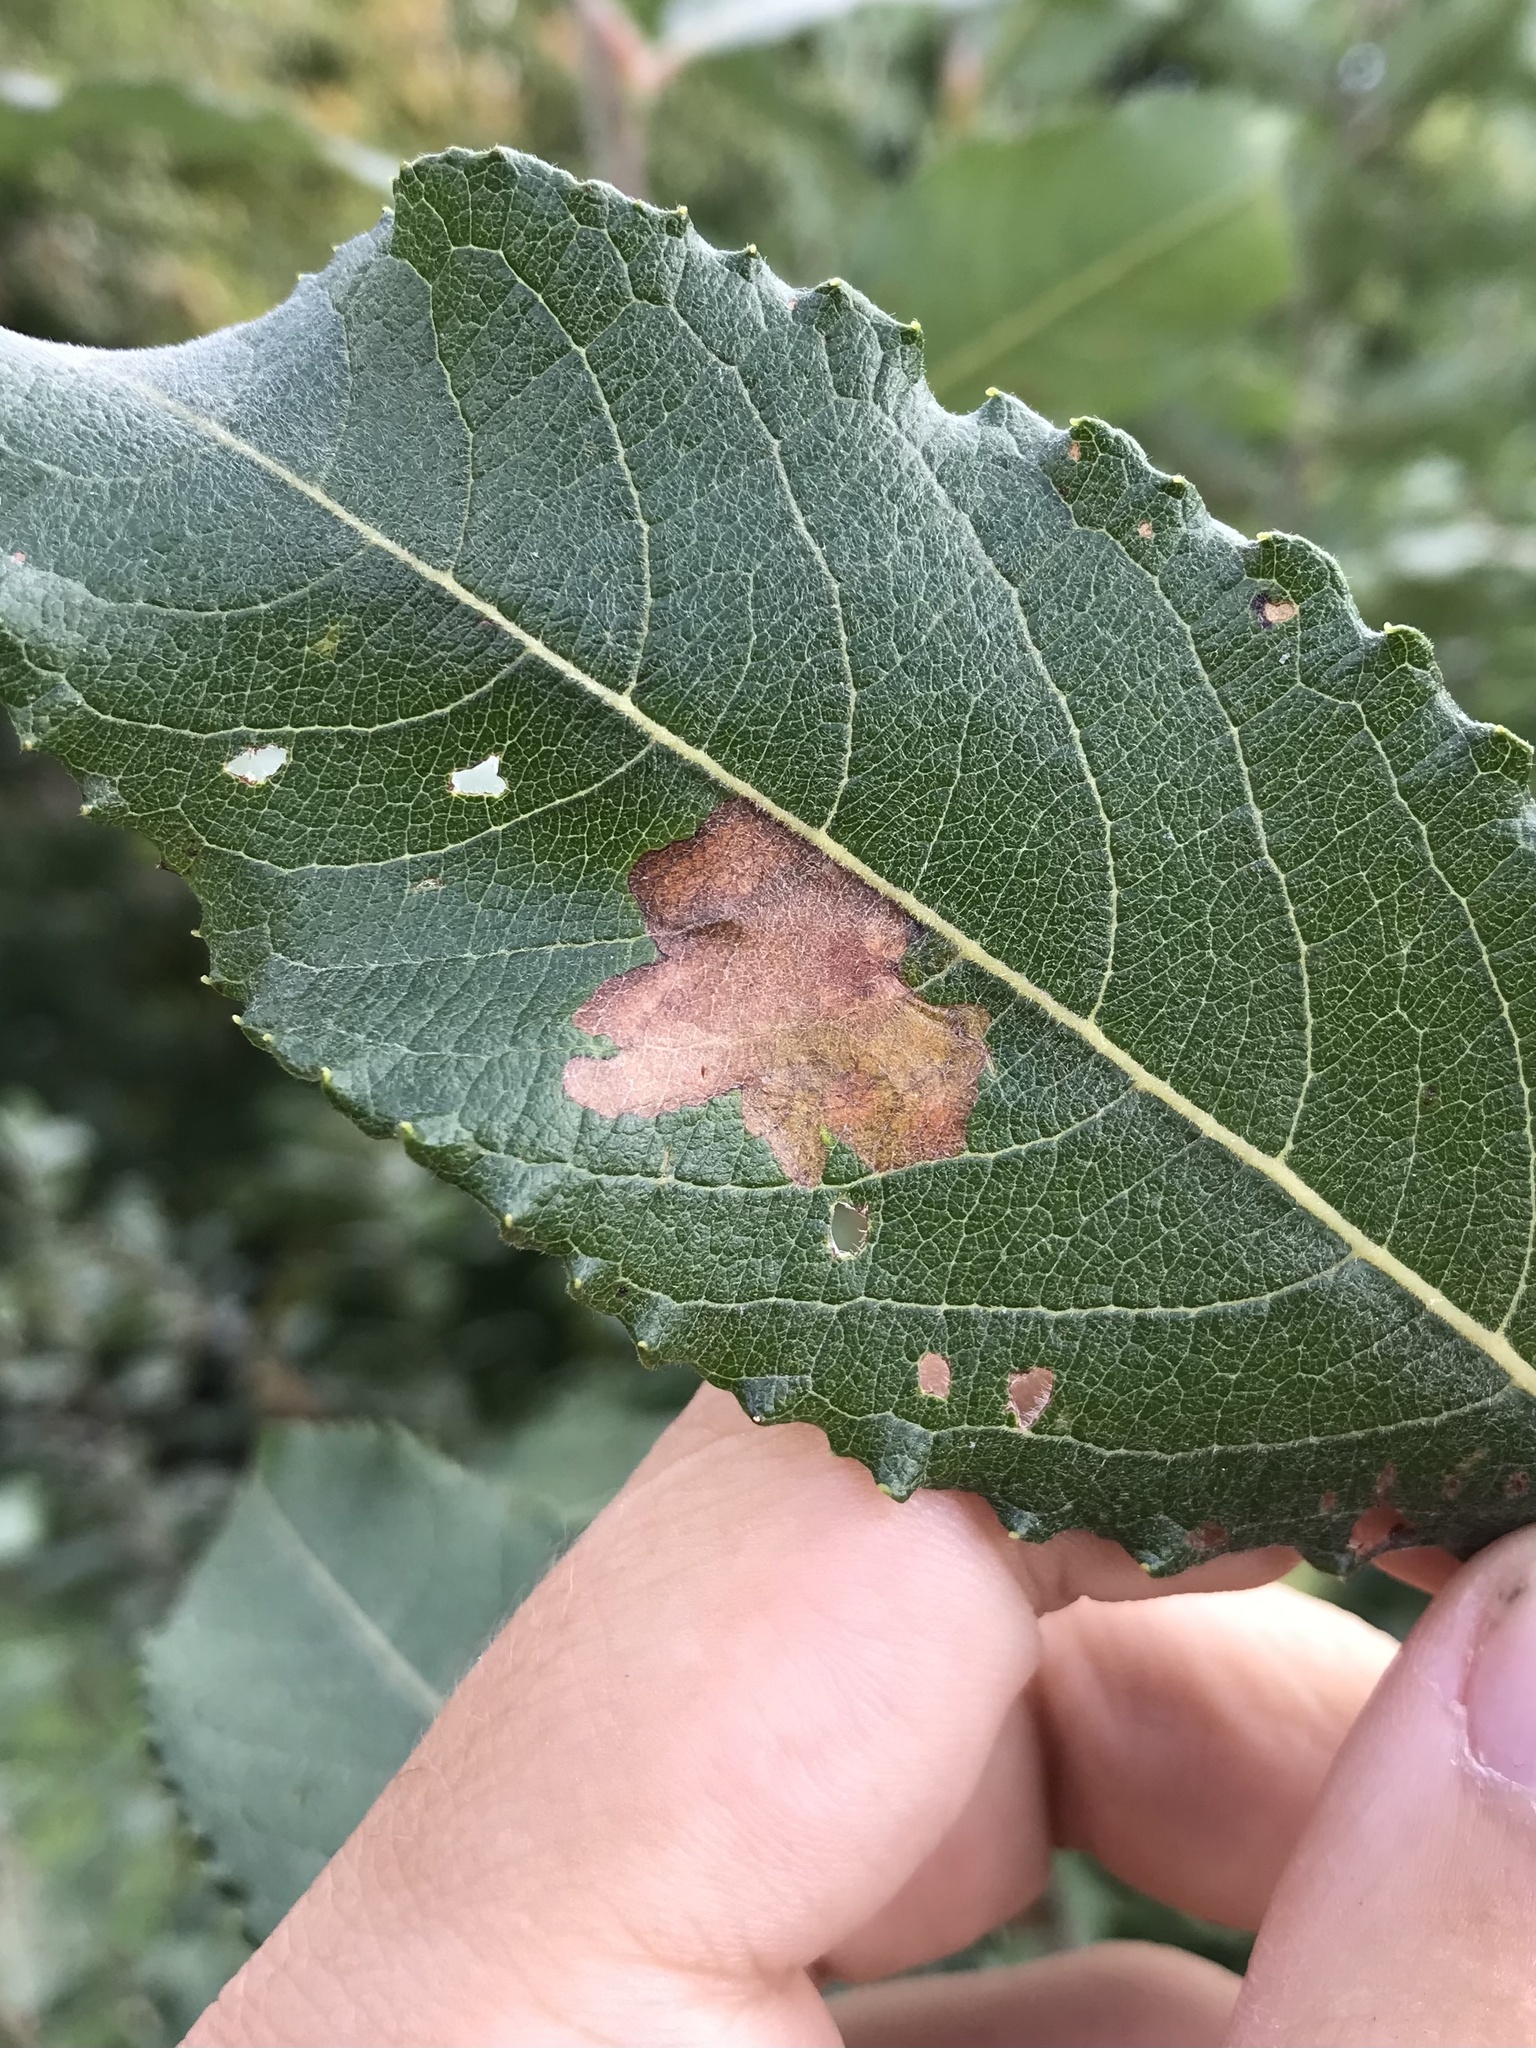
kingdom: Animalia
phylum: Arthropoda
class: Insecta
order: Lepidoptera
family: Gracillariidae
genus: Micrurapteryx
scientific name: Micrurapteryx salicifoliella
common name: Willow leaf blotch miner moth
